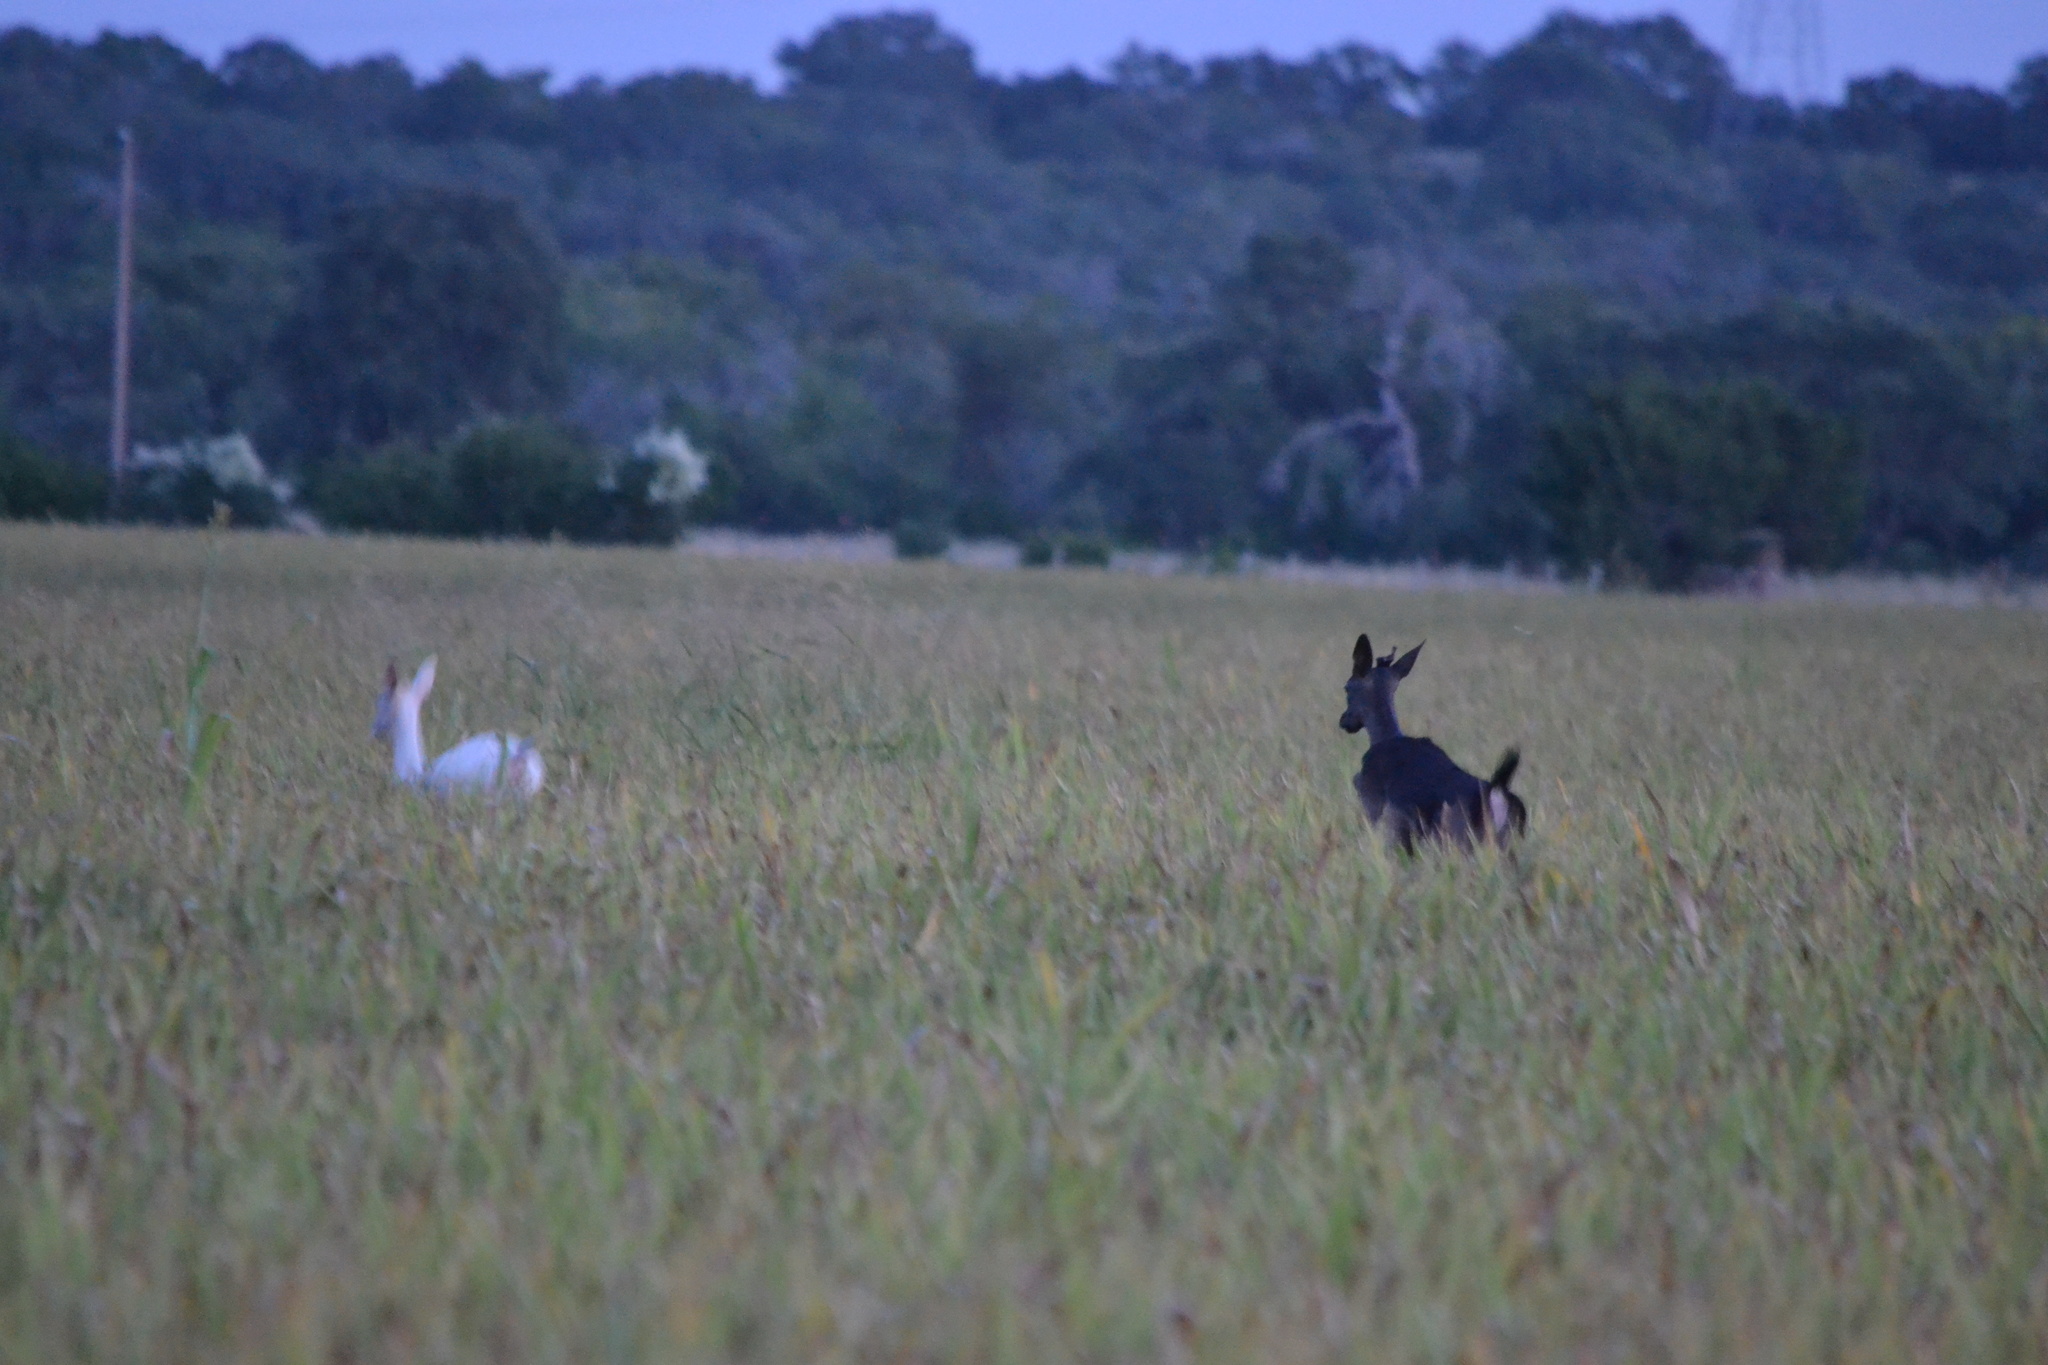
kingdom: Animalia
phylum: Chordata
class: Mammalia
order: Artiodactyla
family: Cervidae
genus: Dama
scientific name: Dama dama
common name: Fallow deer
